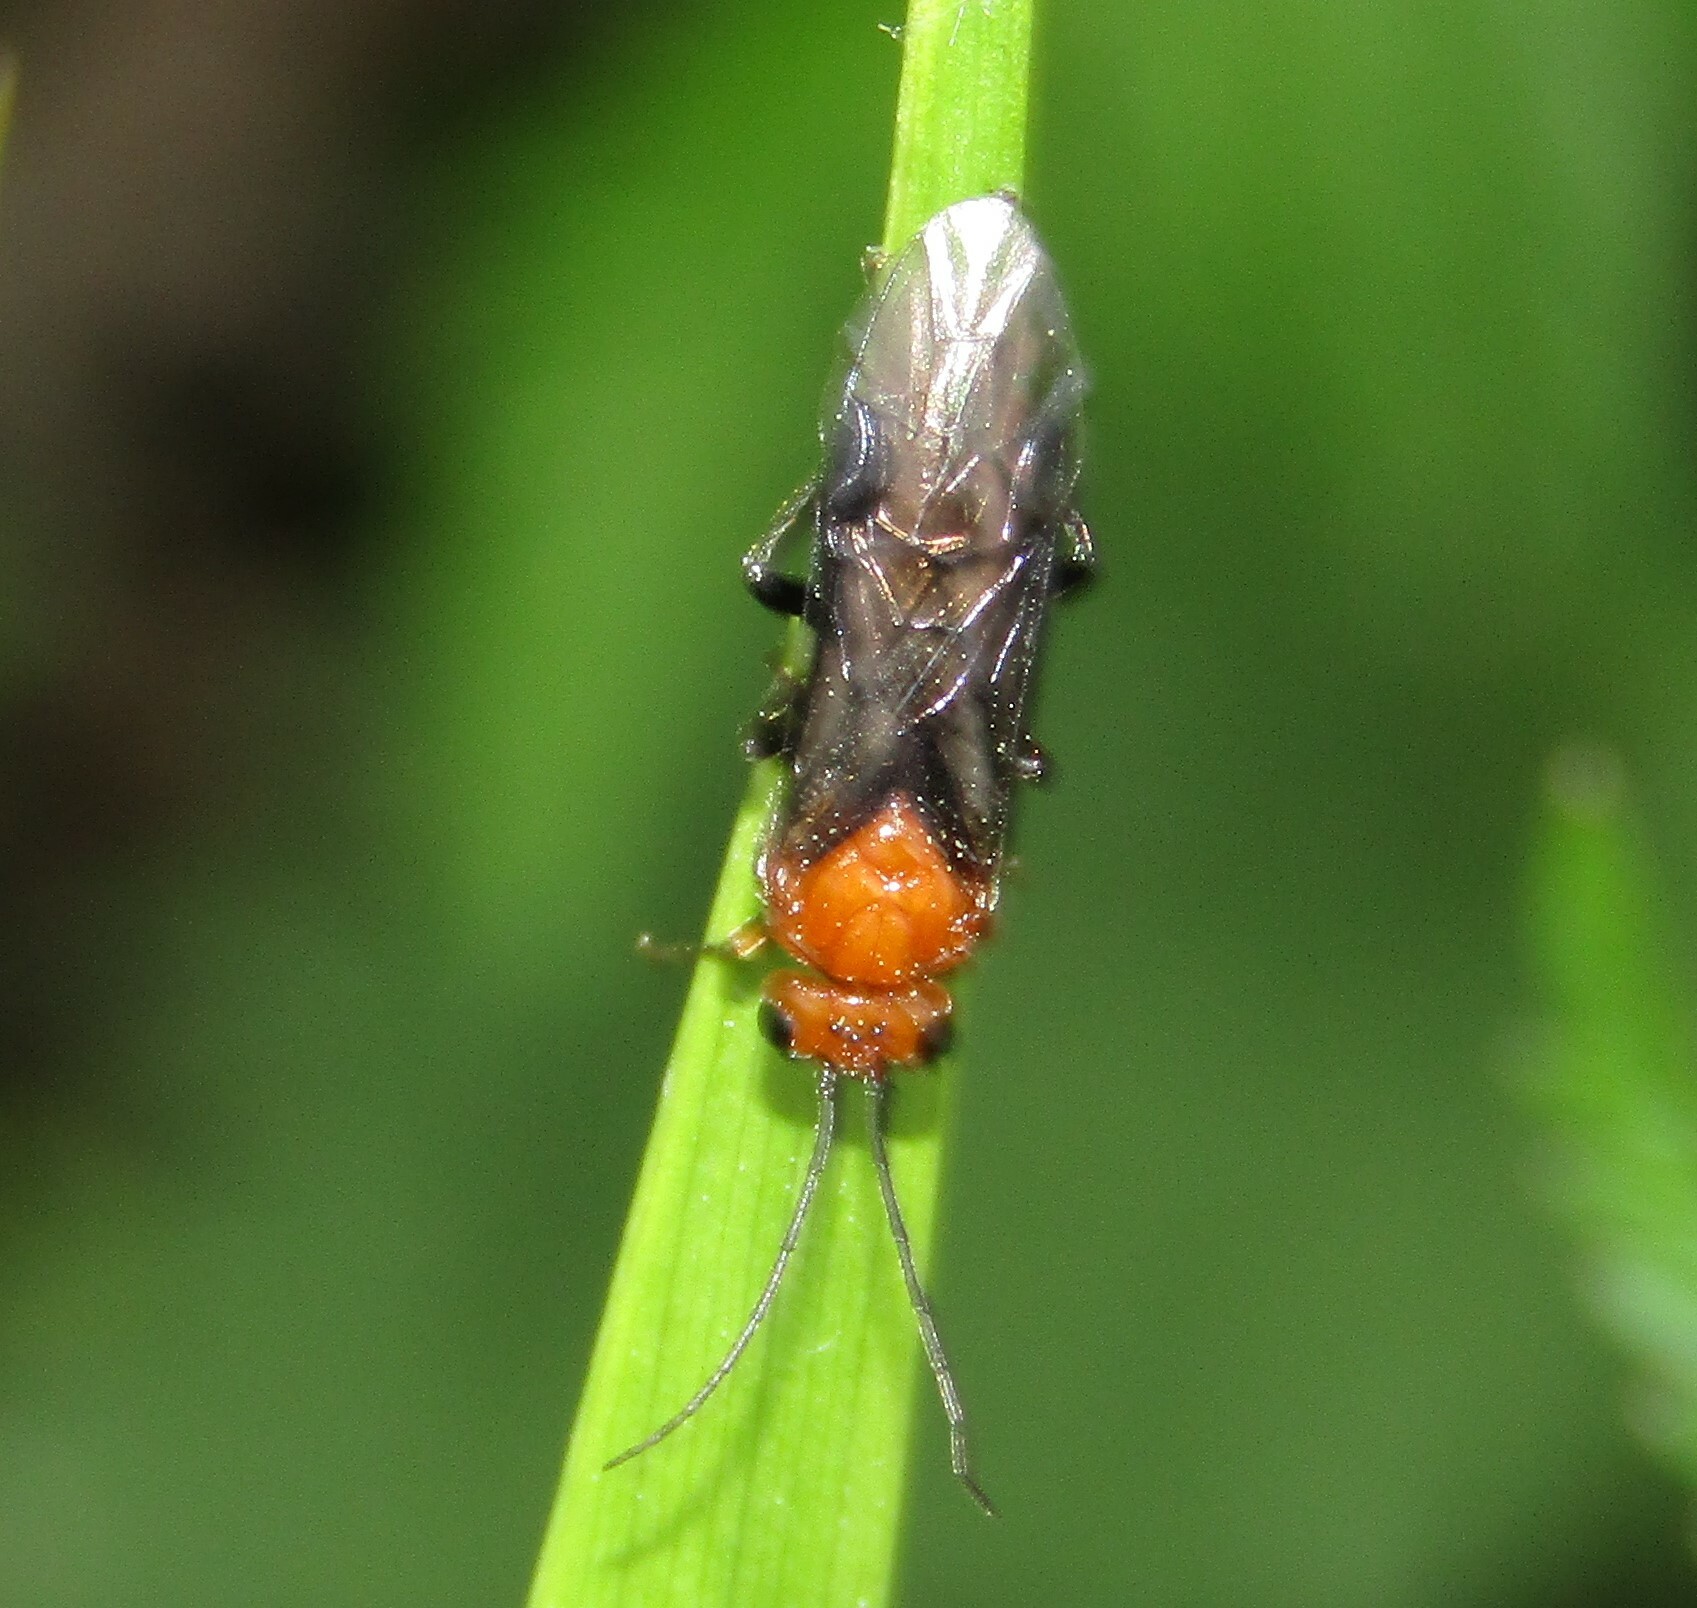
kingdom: Animalia
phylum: Arthropoda
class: Insecta
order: Hymenoptera
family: Tenthredinidae
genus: Hemichroa
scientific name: Hemichroa crocea
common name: Striped alder sawfly
